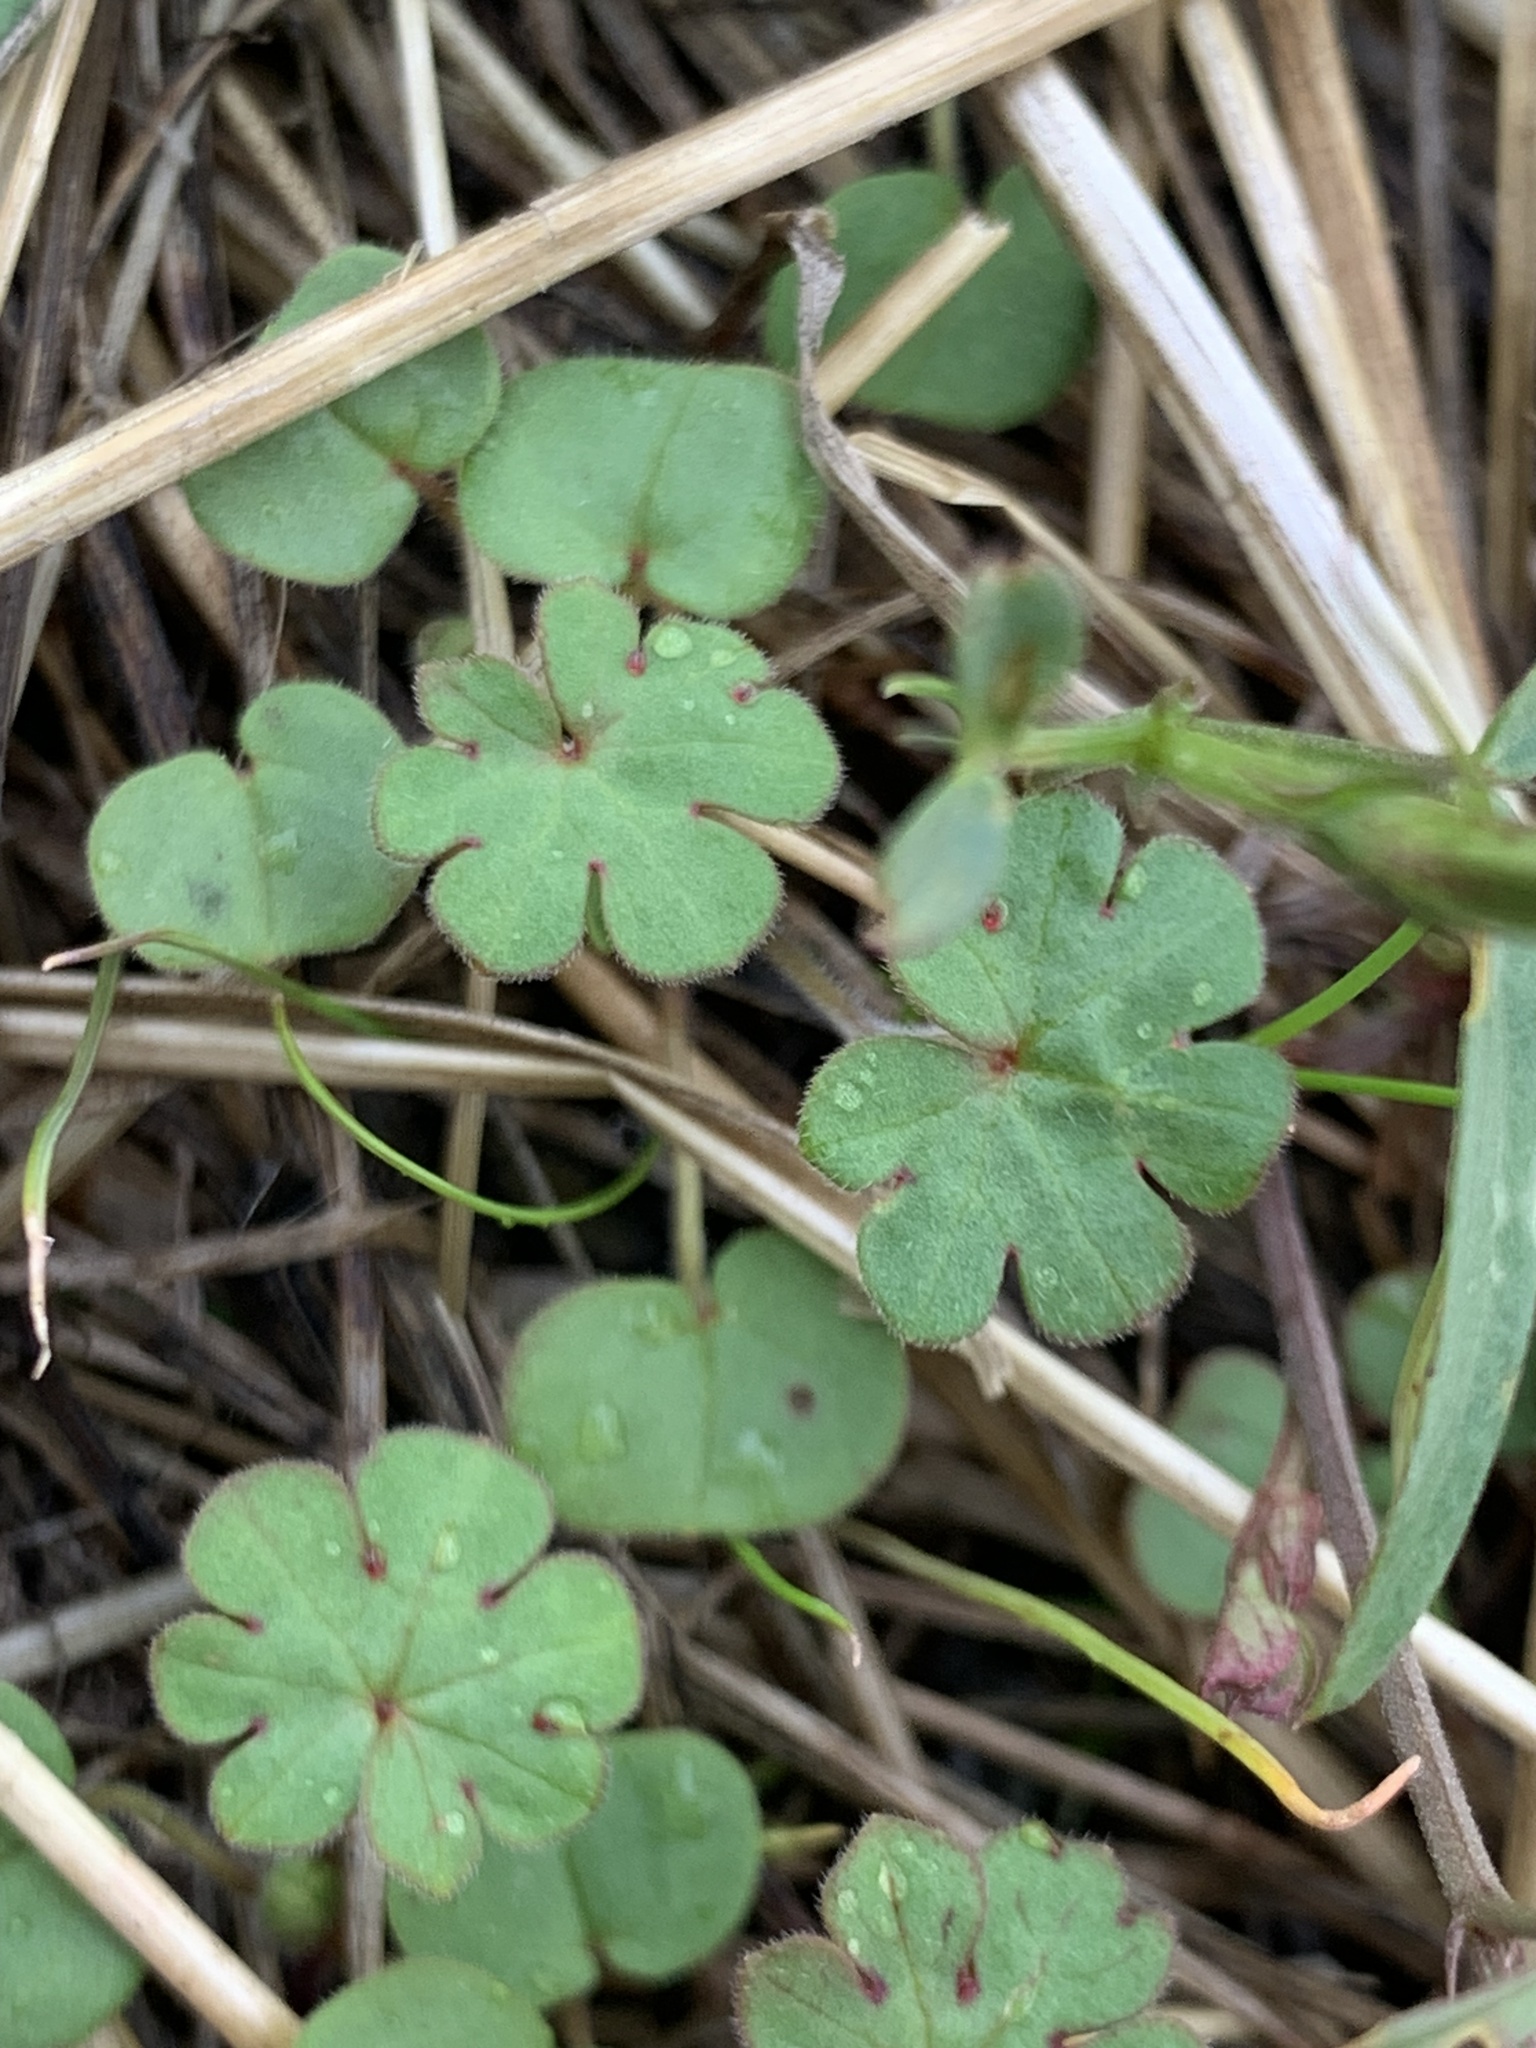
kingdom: Plantae
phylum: Tracheophyta
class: Magnoliopsida
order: Geraniales
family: Geraniaceae
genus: Geranium
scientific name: Geranium
